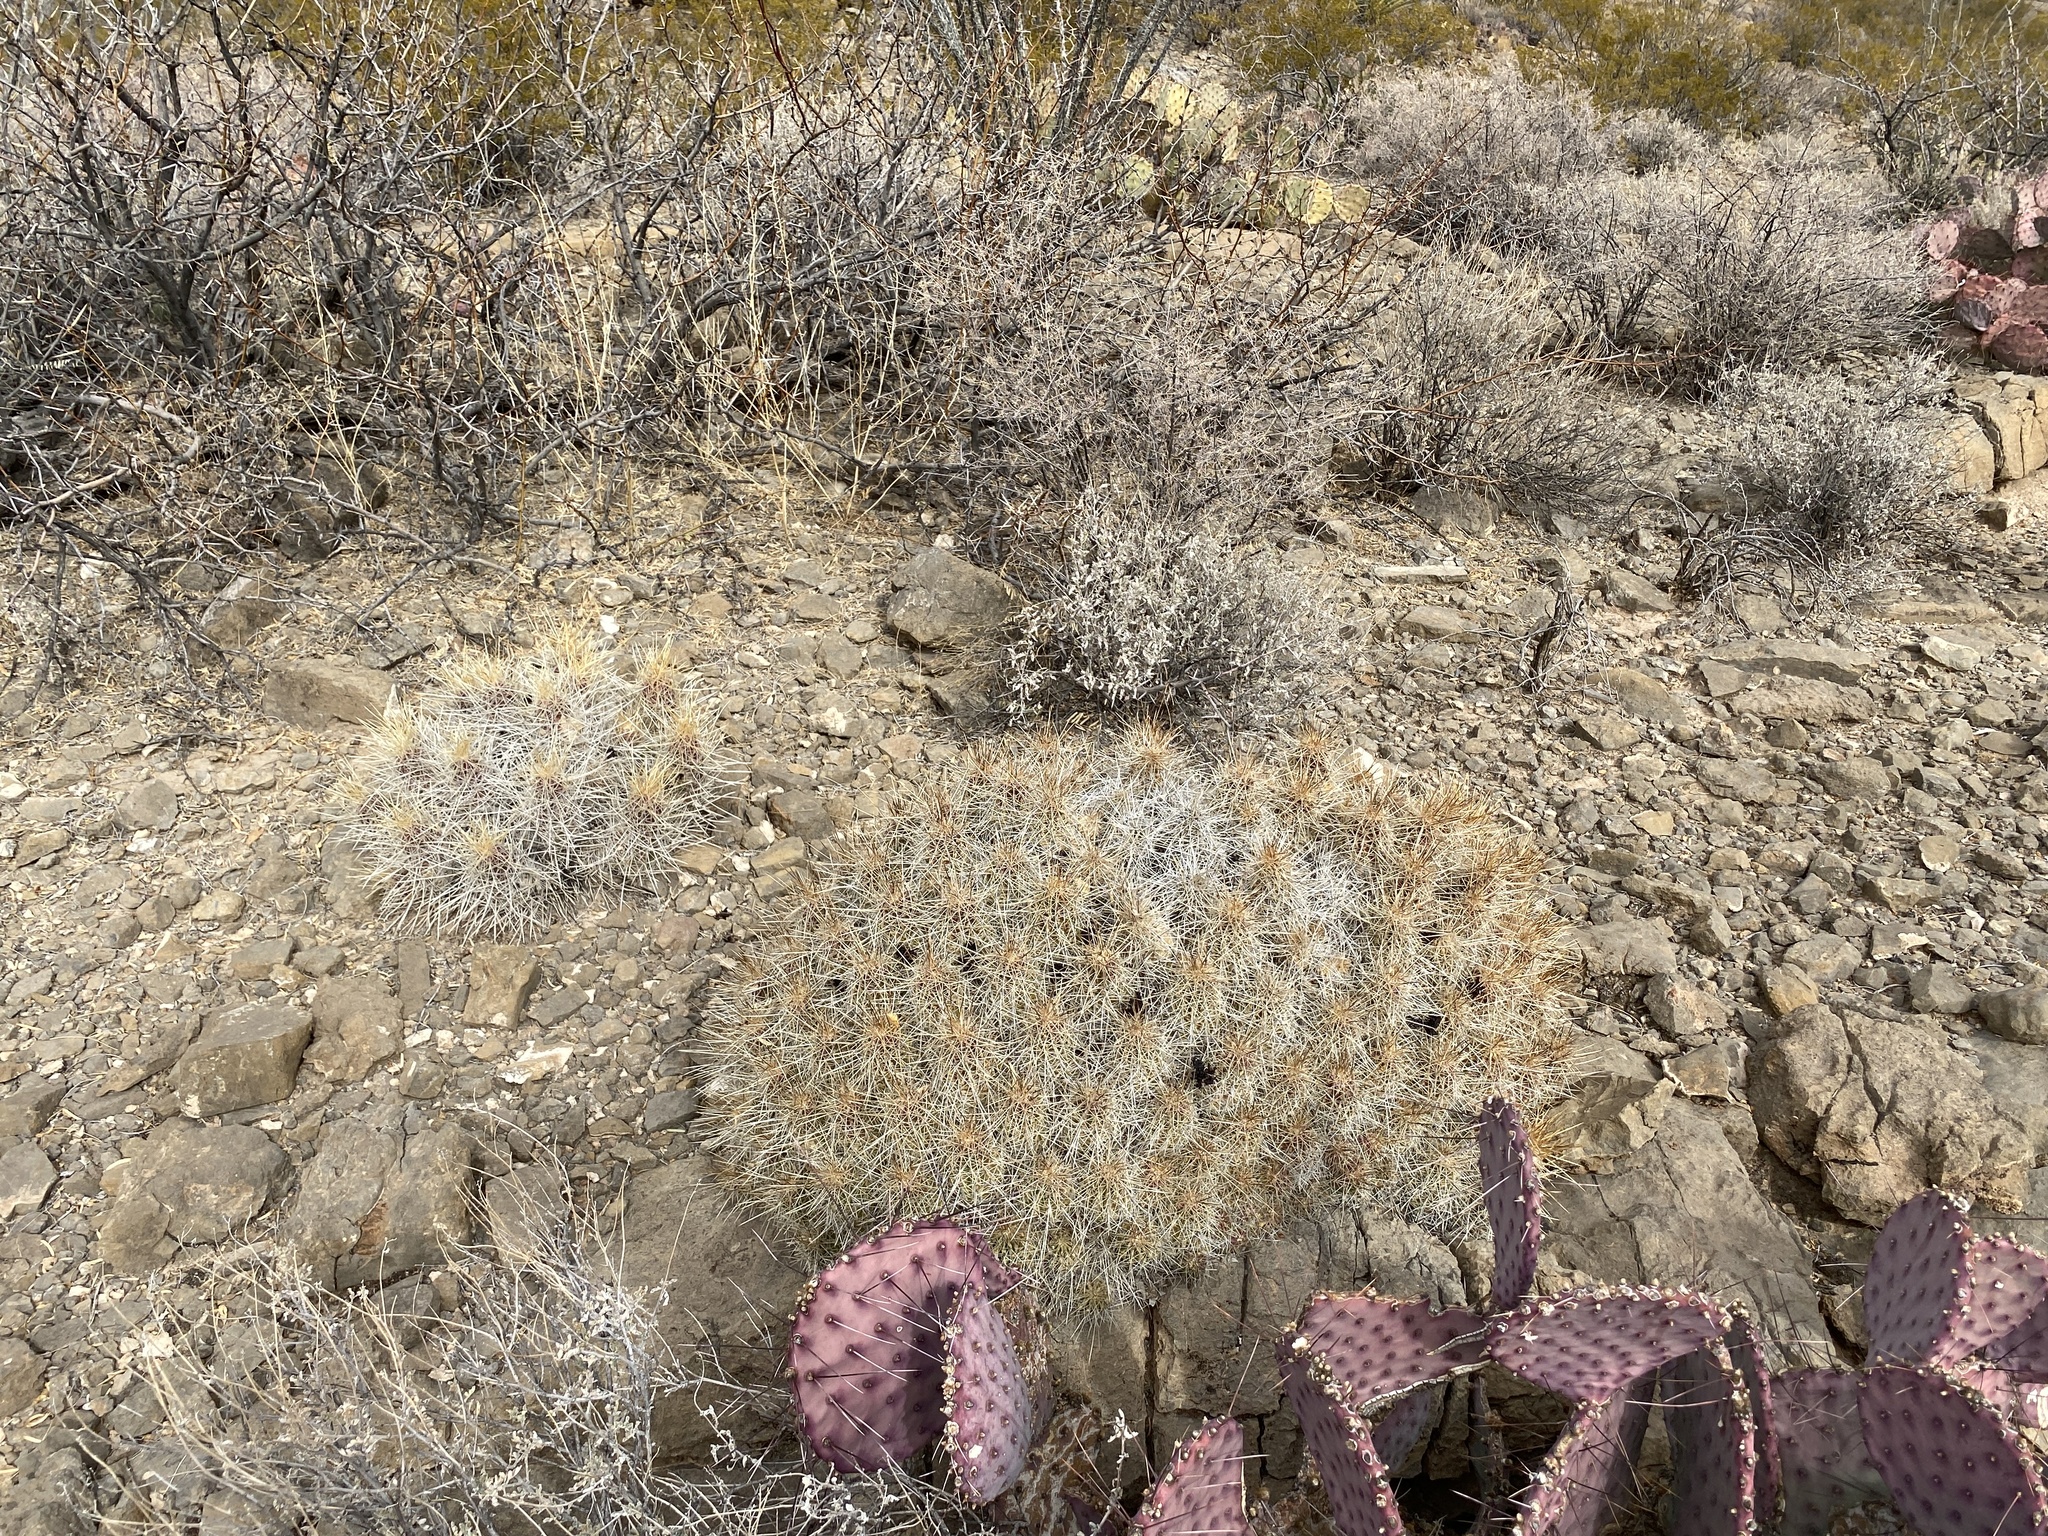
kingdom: Plantae
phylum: Tracheophyta
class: Magnoliopsida
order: Caryophyllales
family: Cactaceae
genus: Echinocereus
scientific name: Echinocereus stramineus
